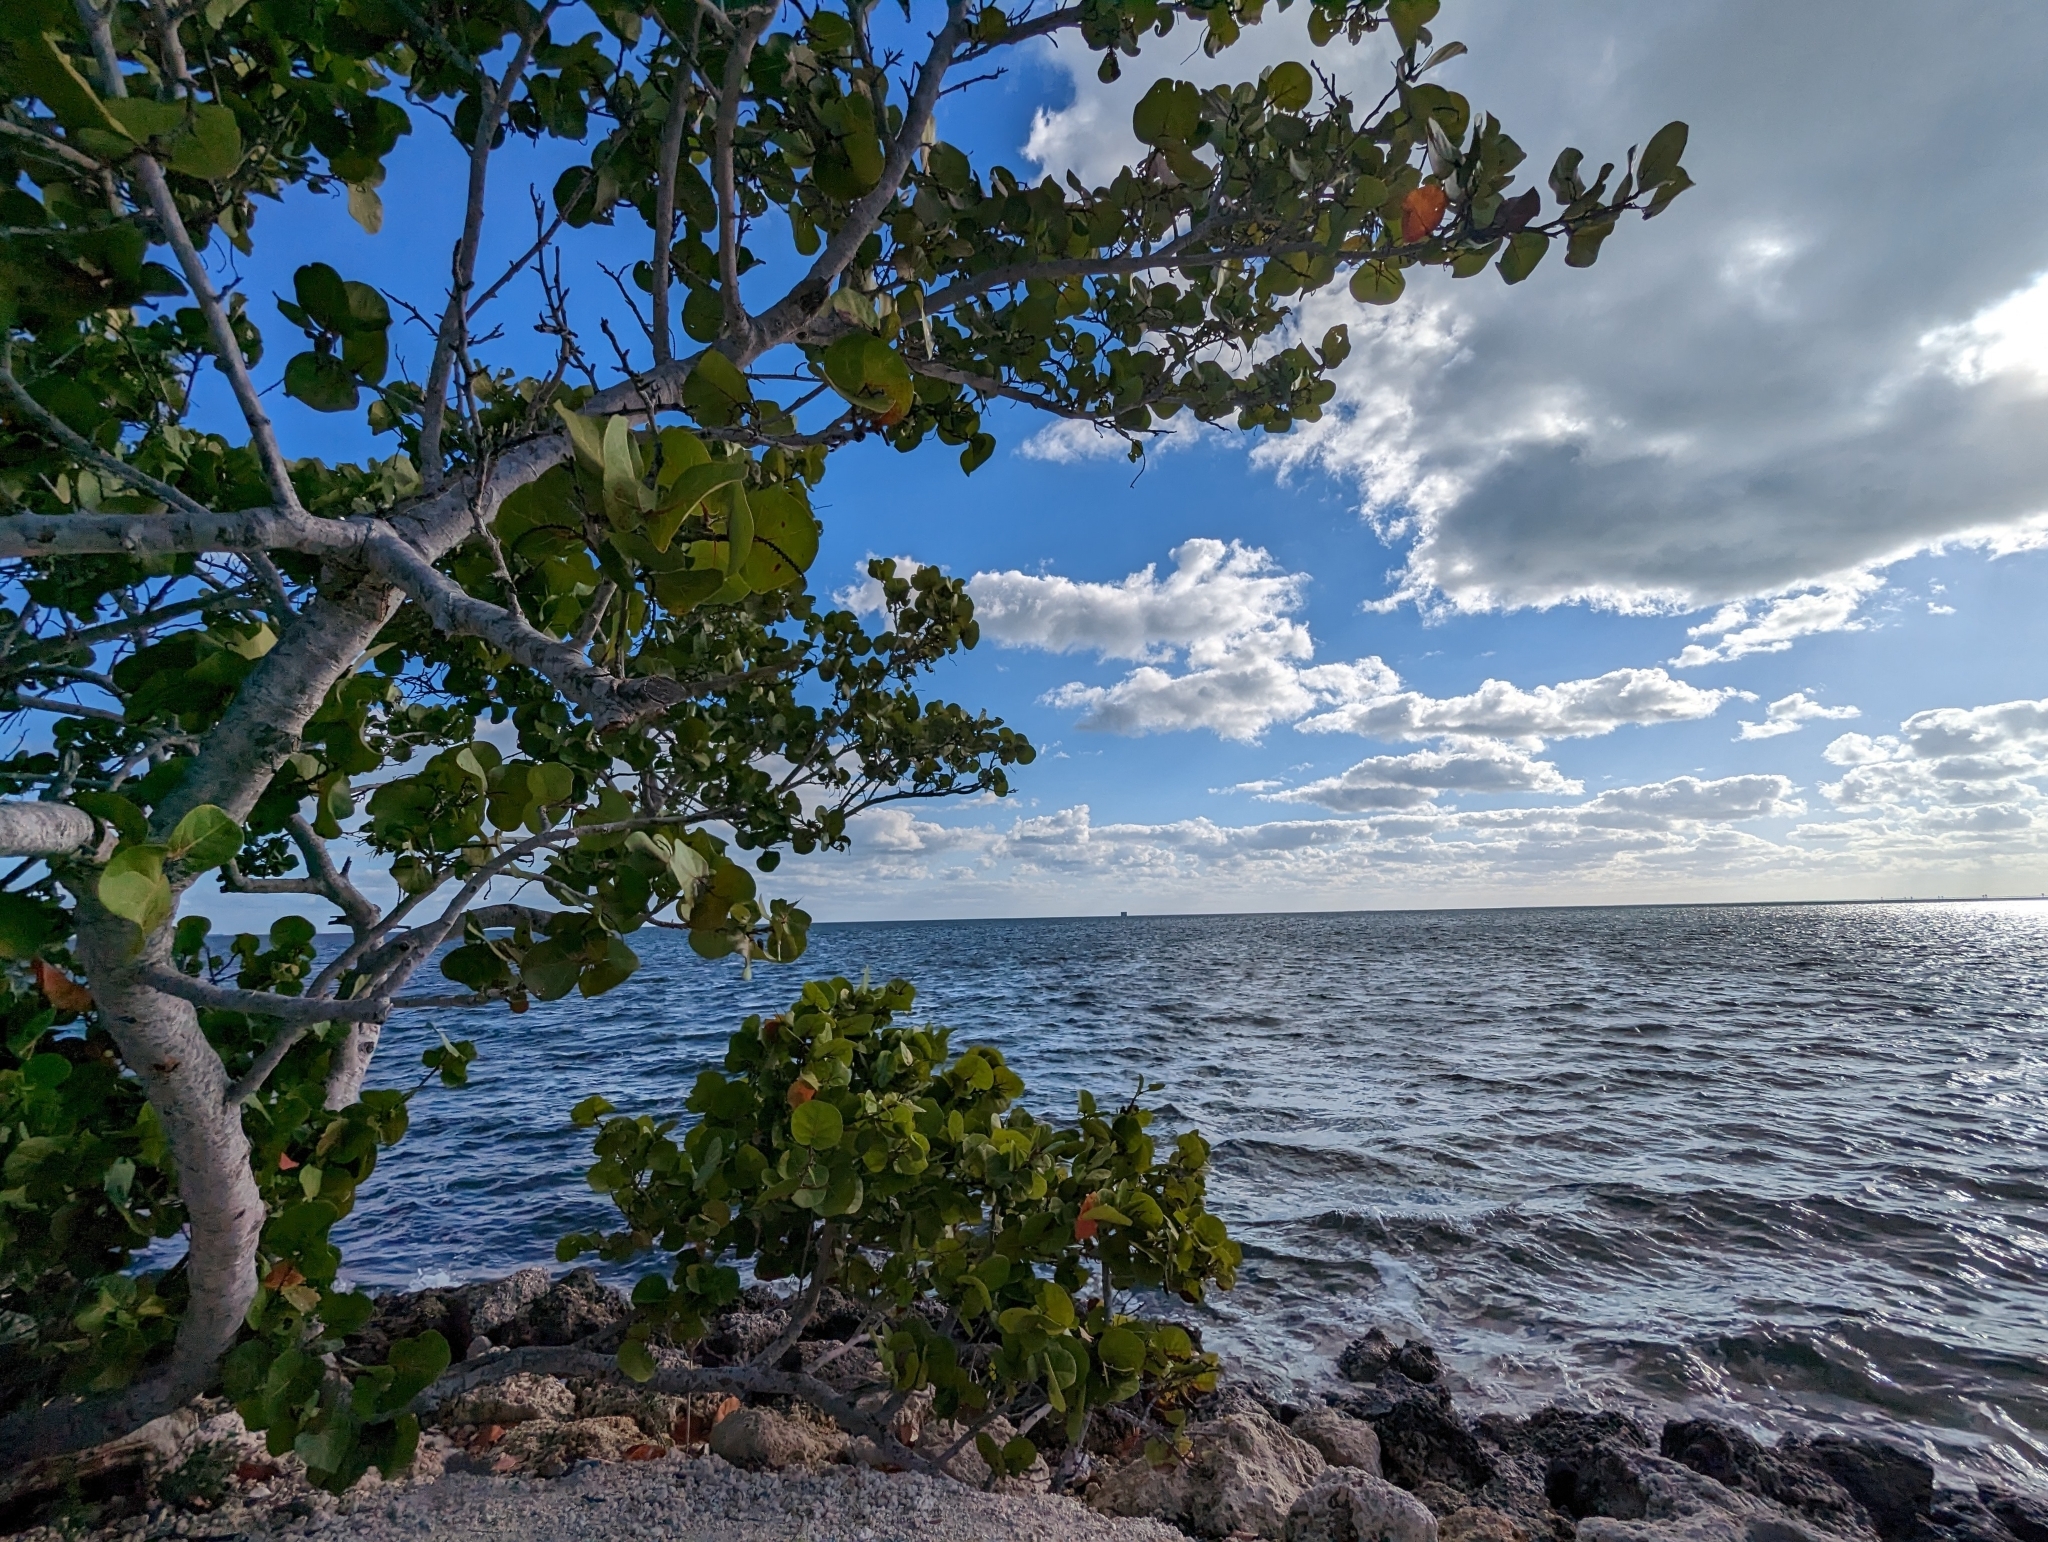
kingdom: Plantae
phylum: Tracheophyta
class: Magnoliopsida
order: Caryophyllales
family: Polygonaceae
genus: Coccoloba
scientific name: Coccoloba uvifera
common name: Seagrape
